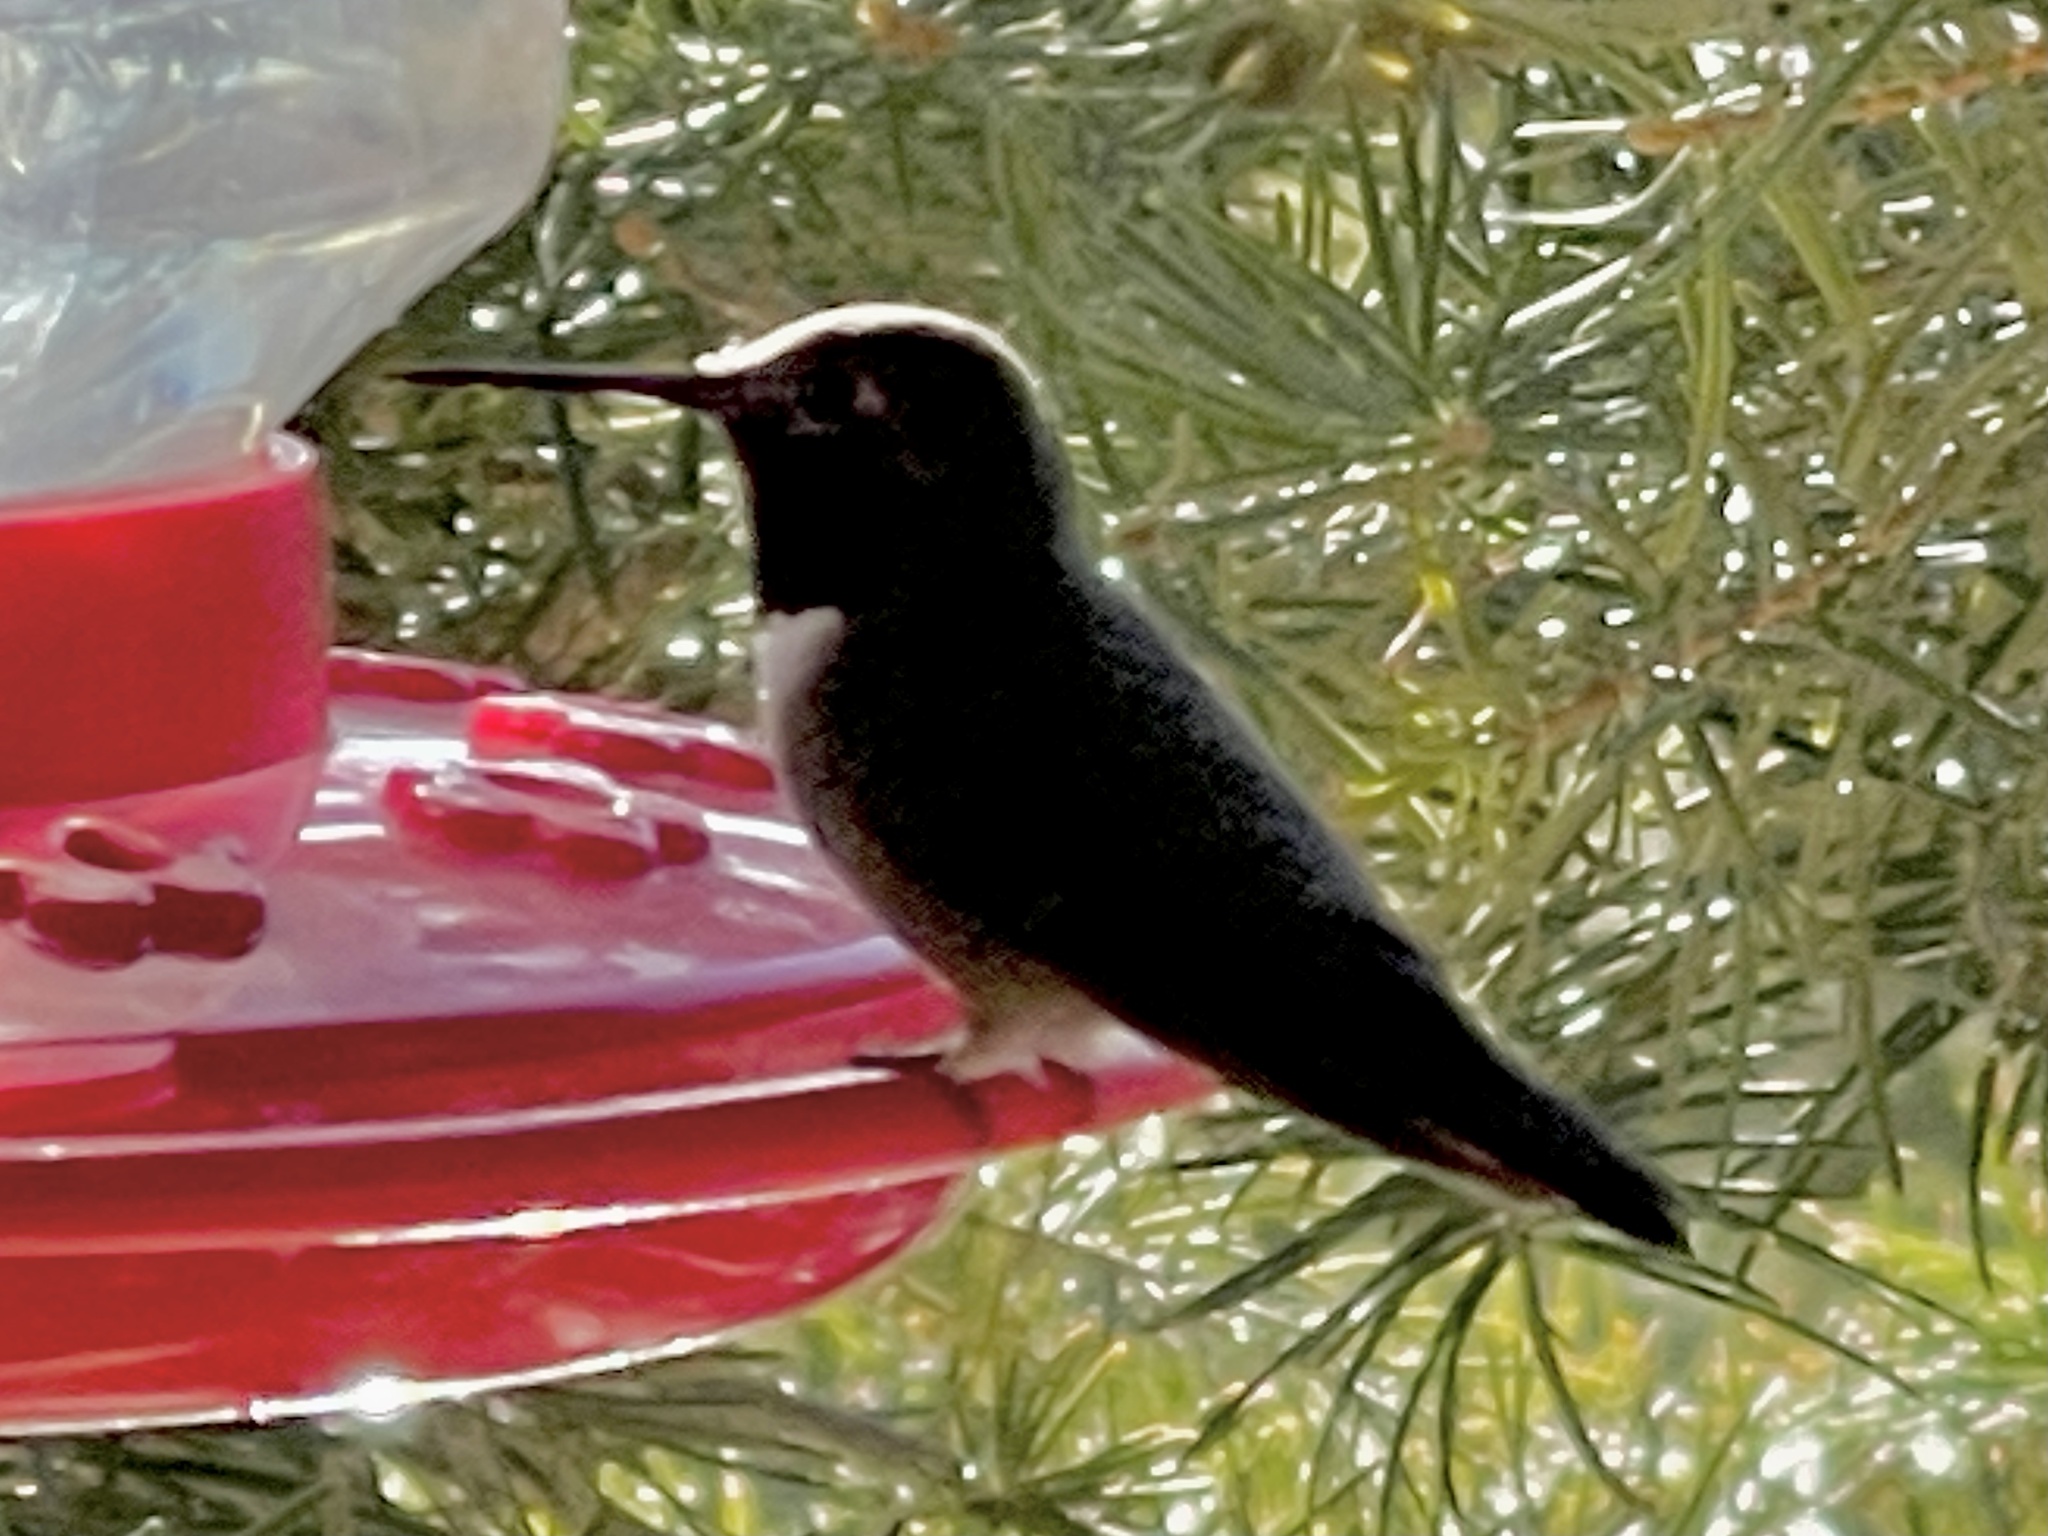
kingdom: Animalia
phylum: Chordata
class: Aves
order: Apodiformes
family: Trochilidae
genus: Selasphorus
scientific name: Selasphorus platycercus
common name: Broad-tailed hummingbird
